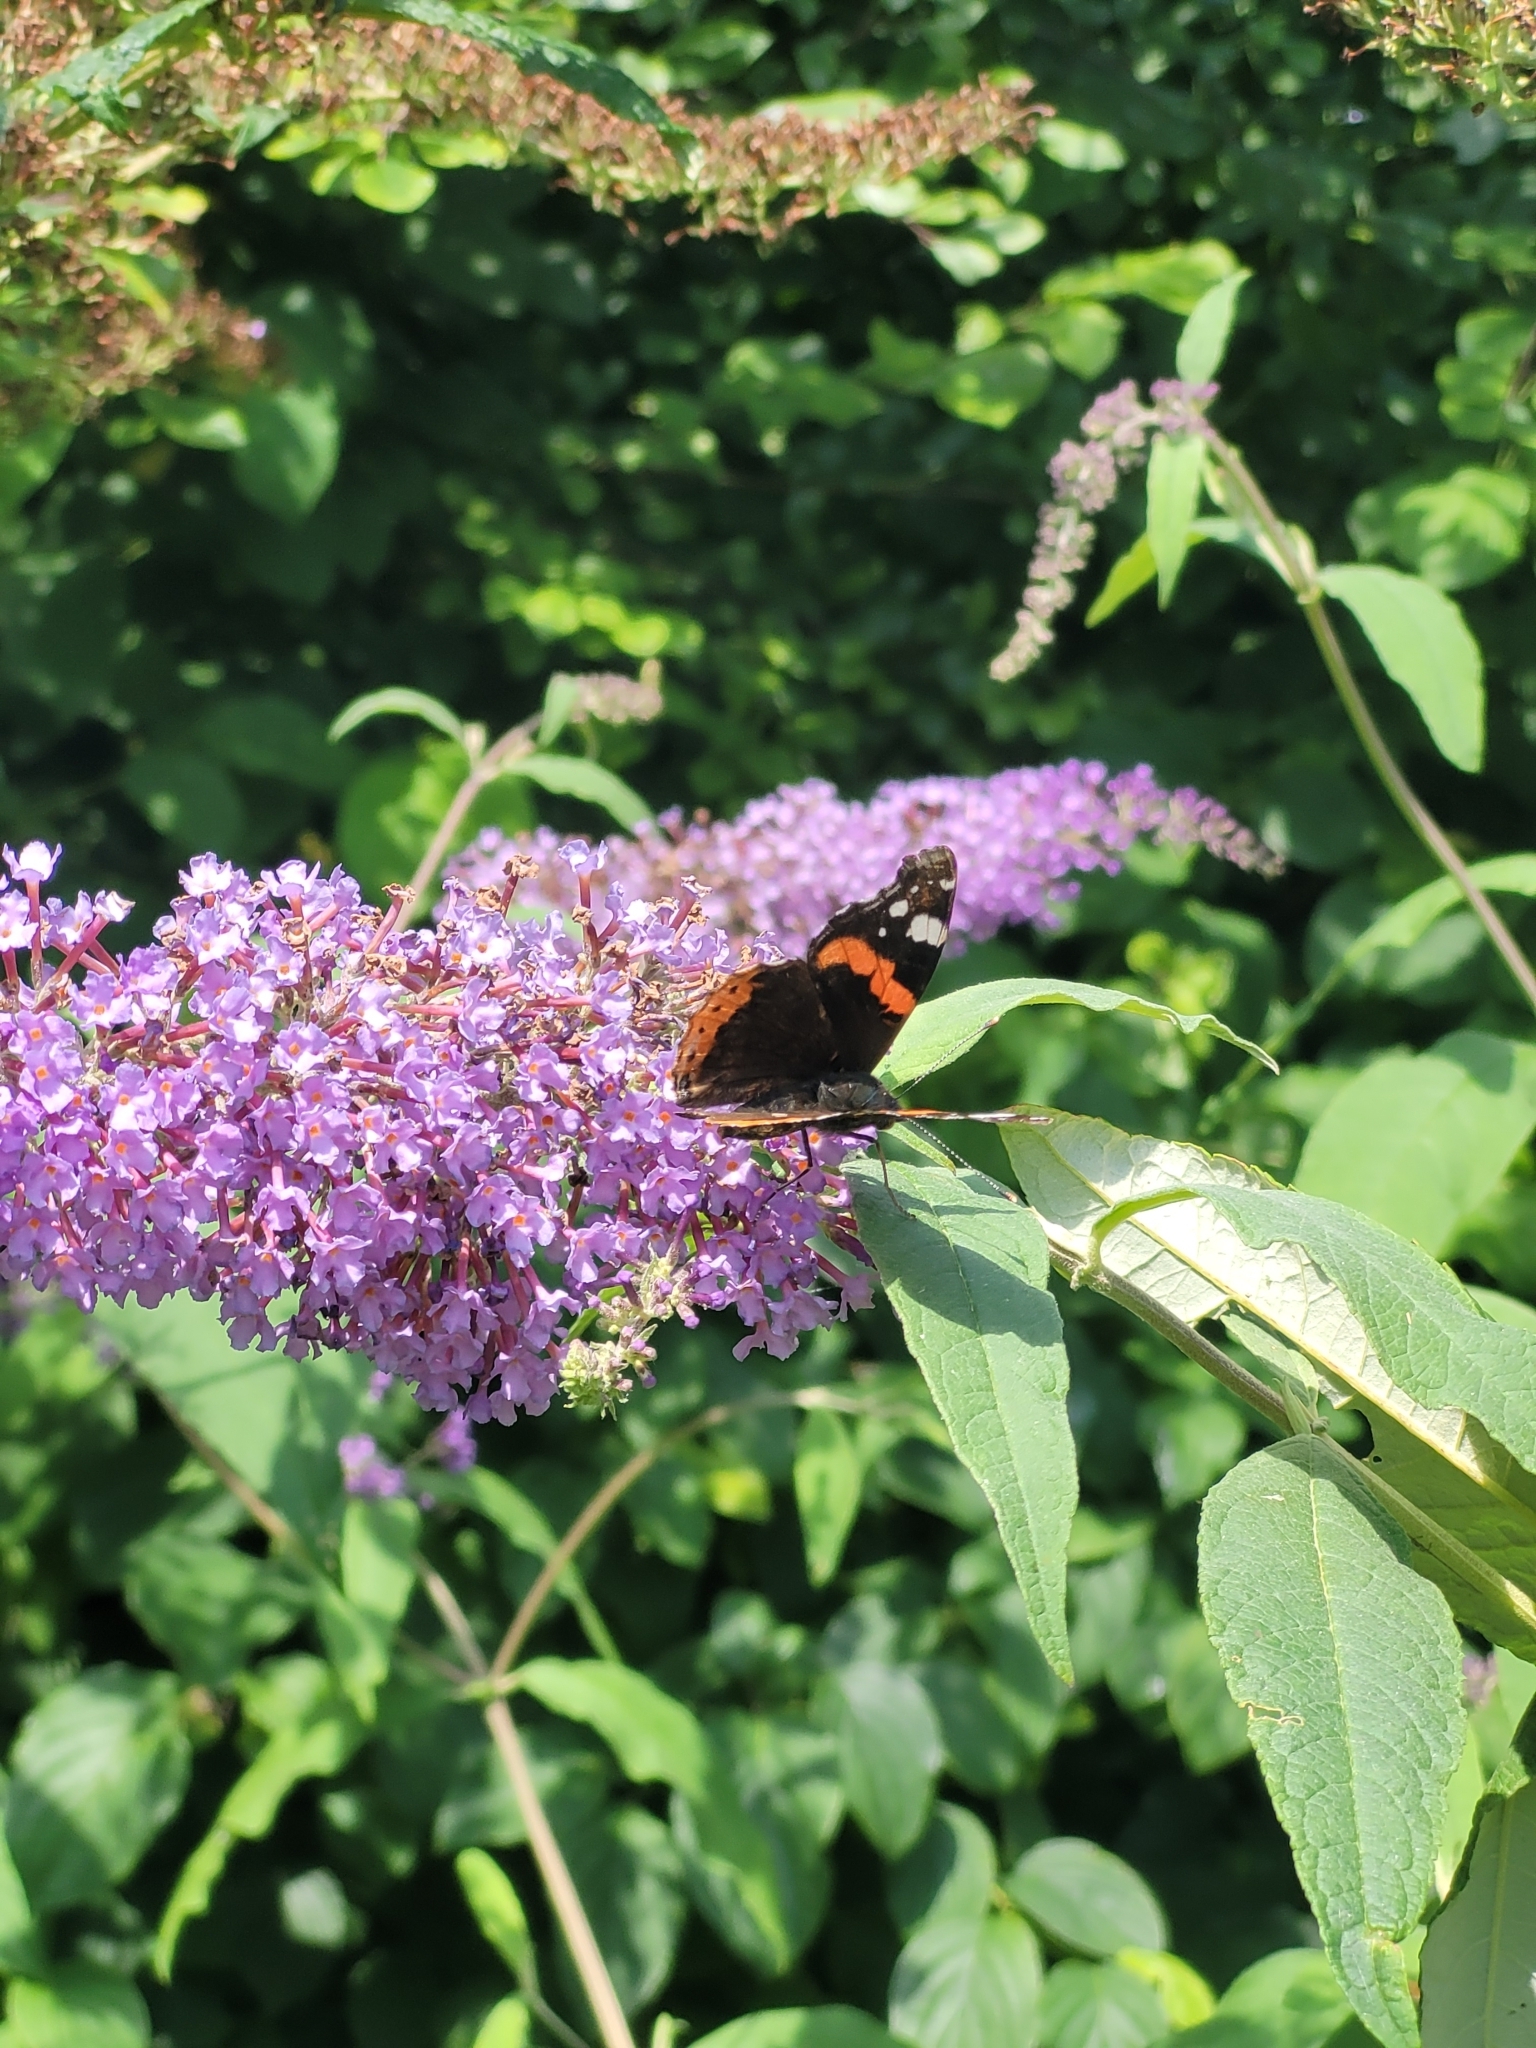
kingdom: Animalia
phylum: Arthropoda
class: Insecta
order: Lepidoptera
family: Nymphalidae
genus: Vanessa
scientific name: Vanessa atalanta
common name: Red admiral
